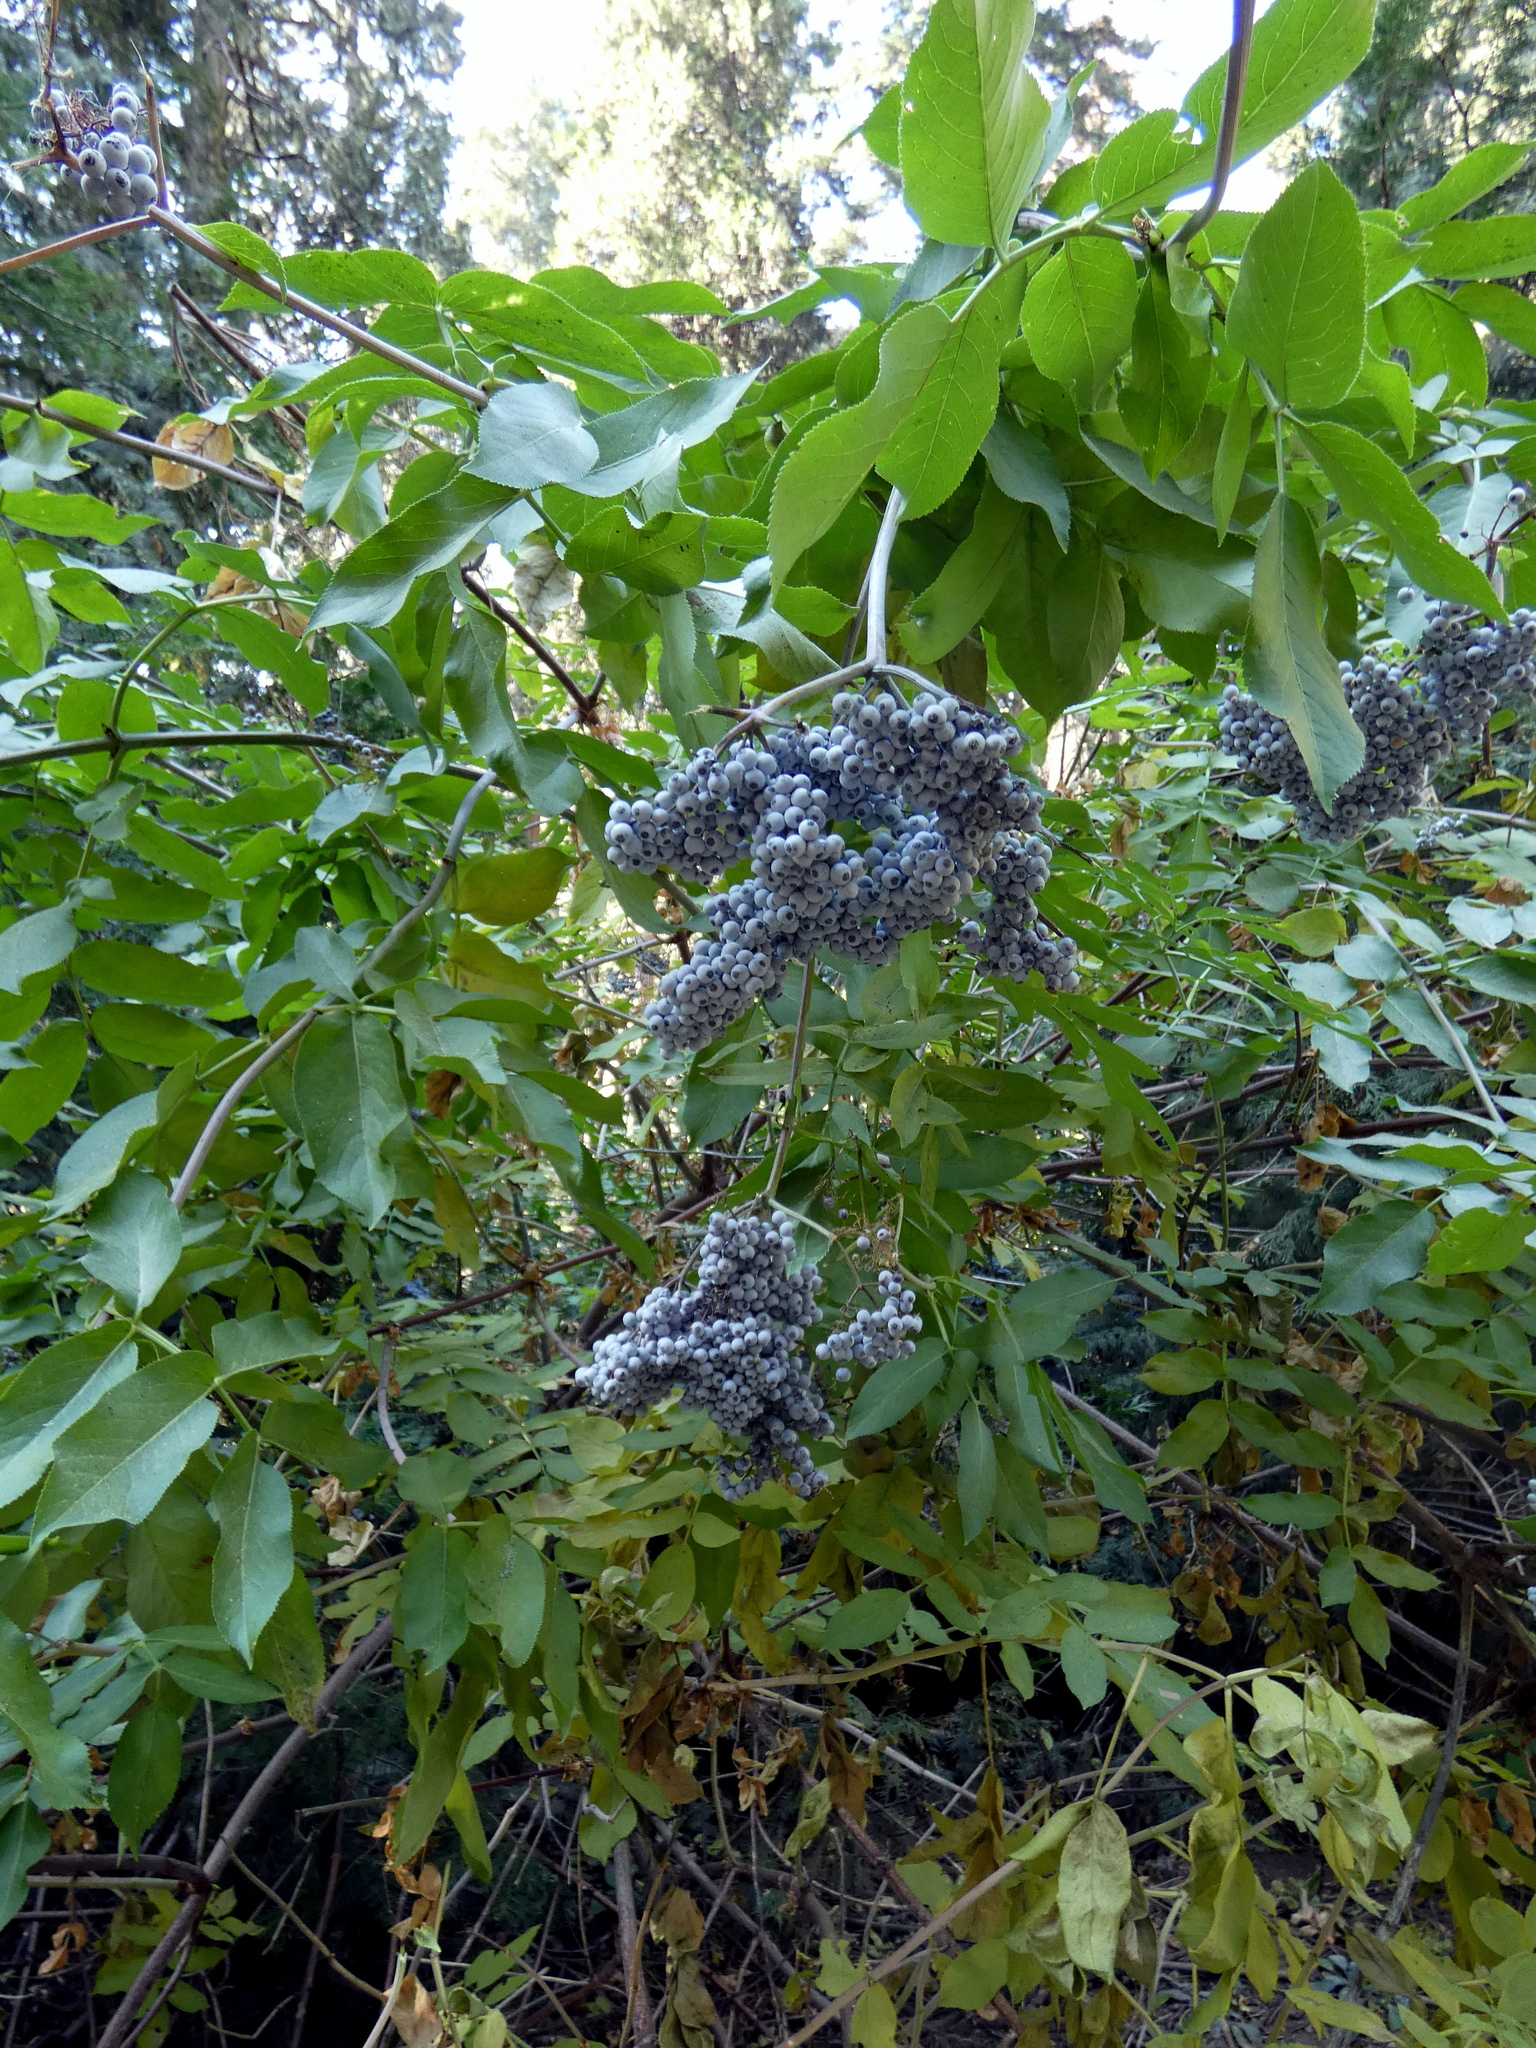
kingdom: Plantae
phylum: Tracheophyta
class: Magnoliopsida
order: Dipsacales
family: Viburnaceae
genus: Sambucus
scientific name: Sambucus cerulea
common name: Blue elder
